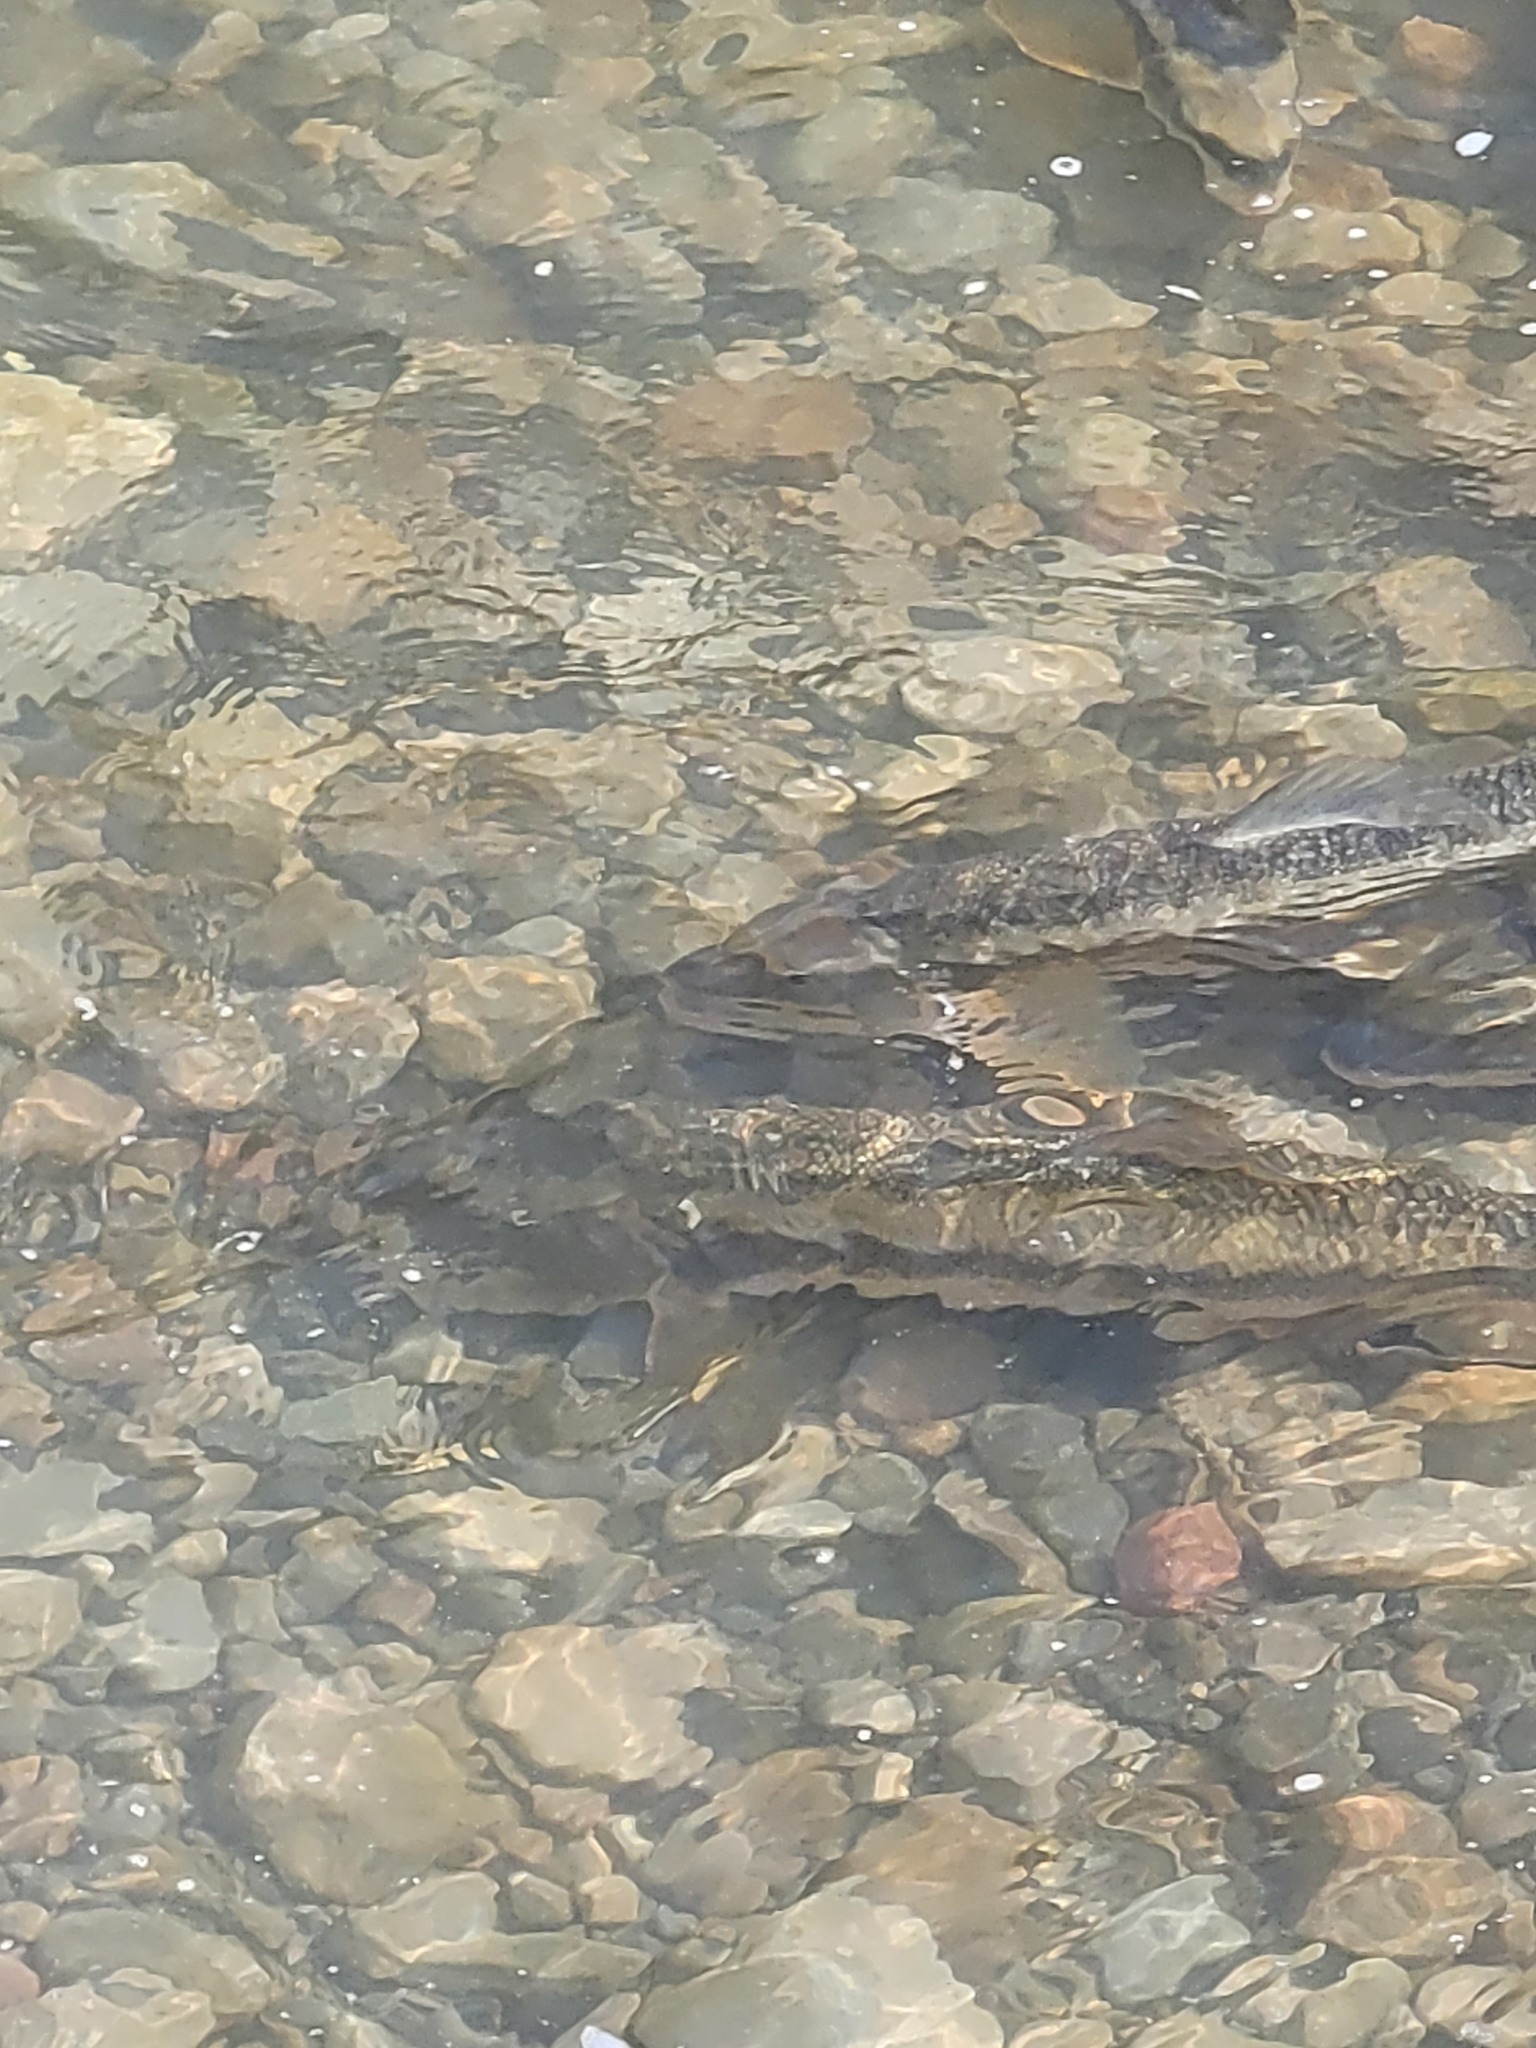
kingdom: Animalia
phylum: Chordata
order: Cypriniformes
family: Catostomidae
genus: Catostomus
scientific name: Catostomus commersonii
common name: White sucker
